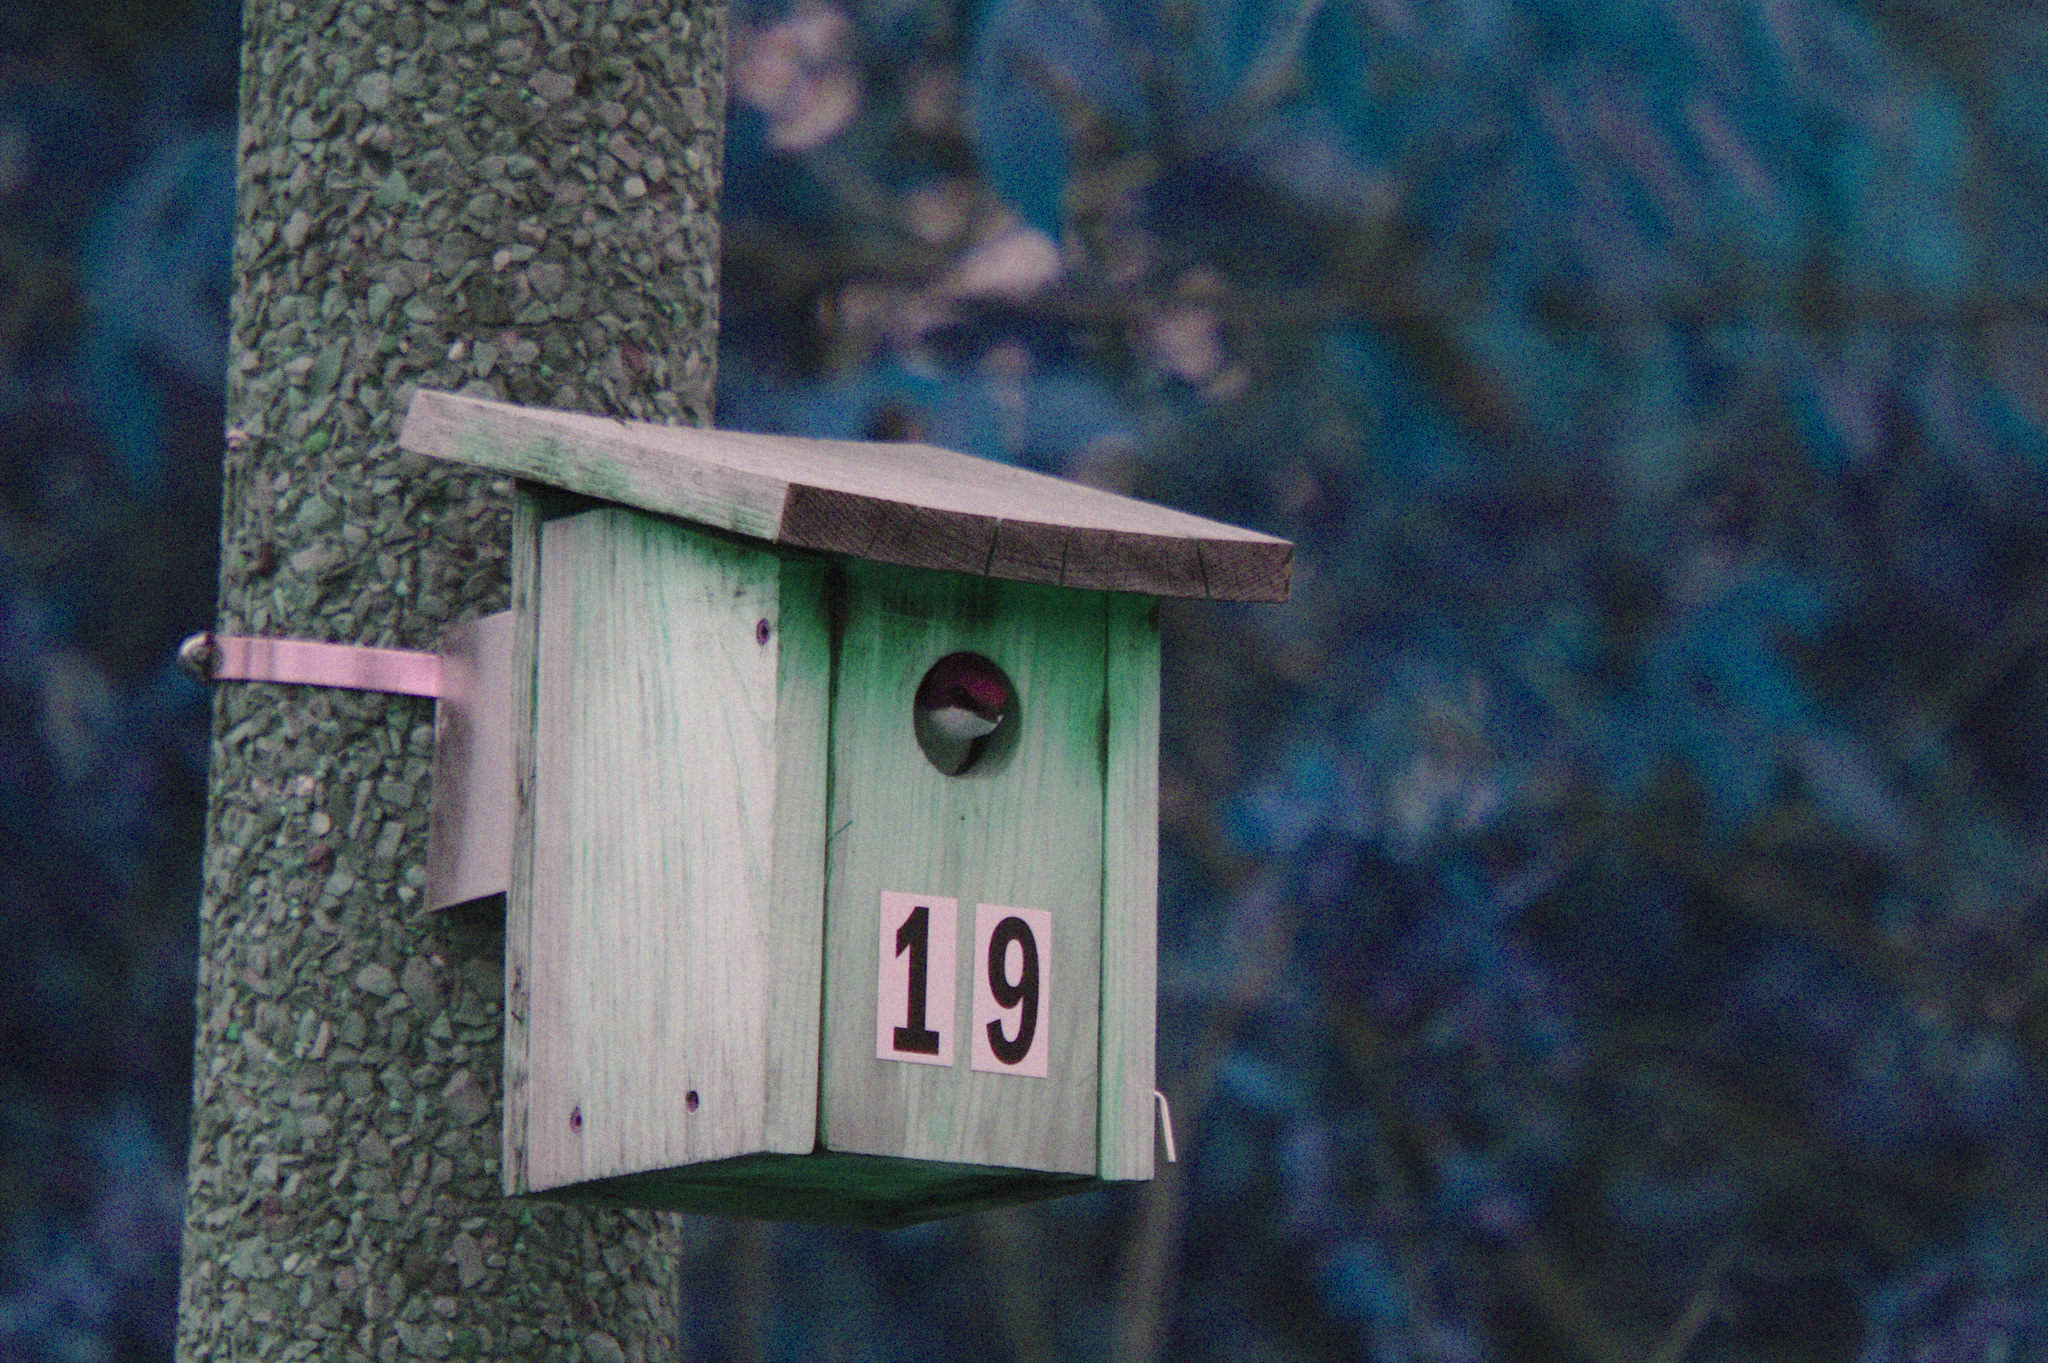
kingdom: Animalia
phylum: Chordata
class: Aves
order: Passeriformes
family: Hirundinidae
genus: Tachycineta
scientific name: Tachycineta bicolor
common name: Tree swallow
